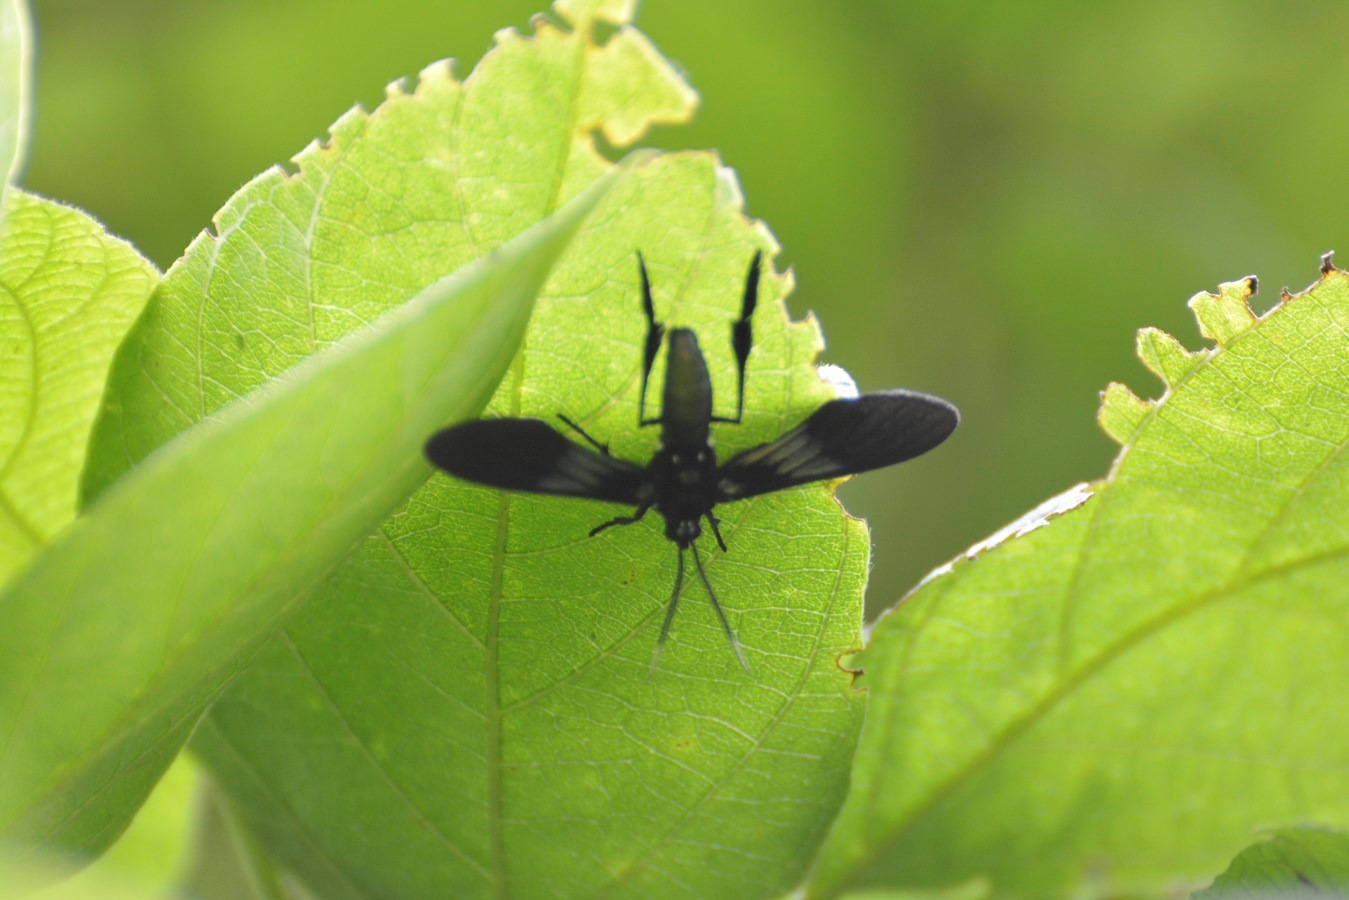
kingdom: Animalia
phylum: Arthropoda
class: Insecta
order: Lepidoptera
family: Erebidae
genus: Macrocneme
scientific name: Macrocneme chrysitis
